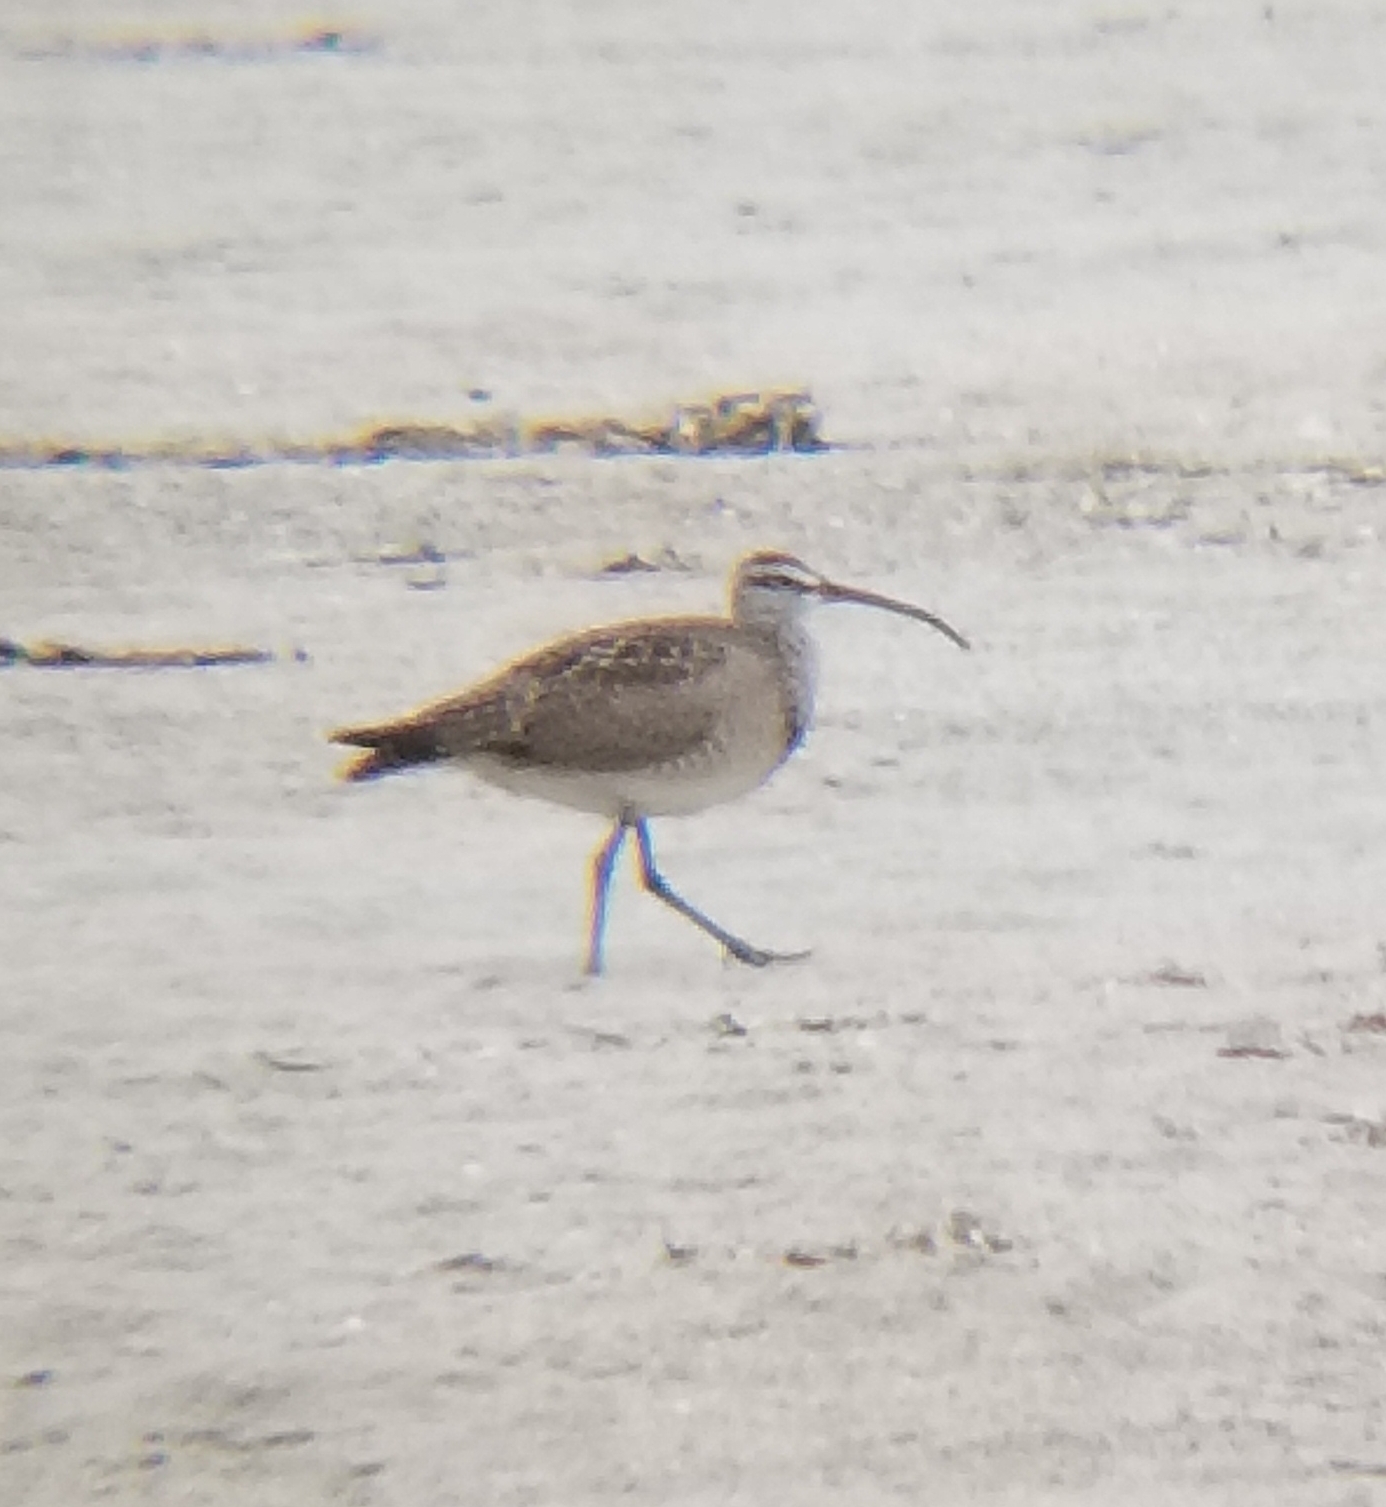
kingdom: Animalia
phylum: Chordata
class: Aves
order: Charadriiformes
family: Scolopacidae
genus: Numenius
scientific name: Numenius phaeopus
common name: Whimbrel
